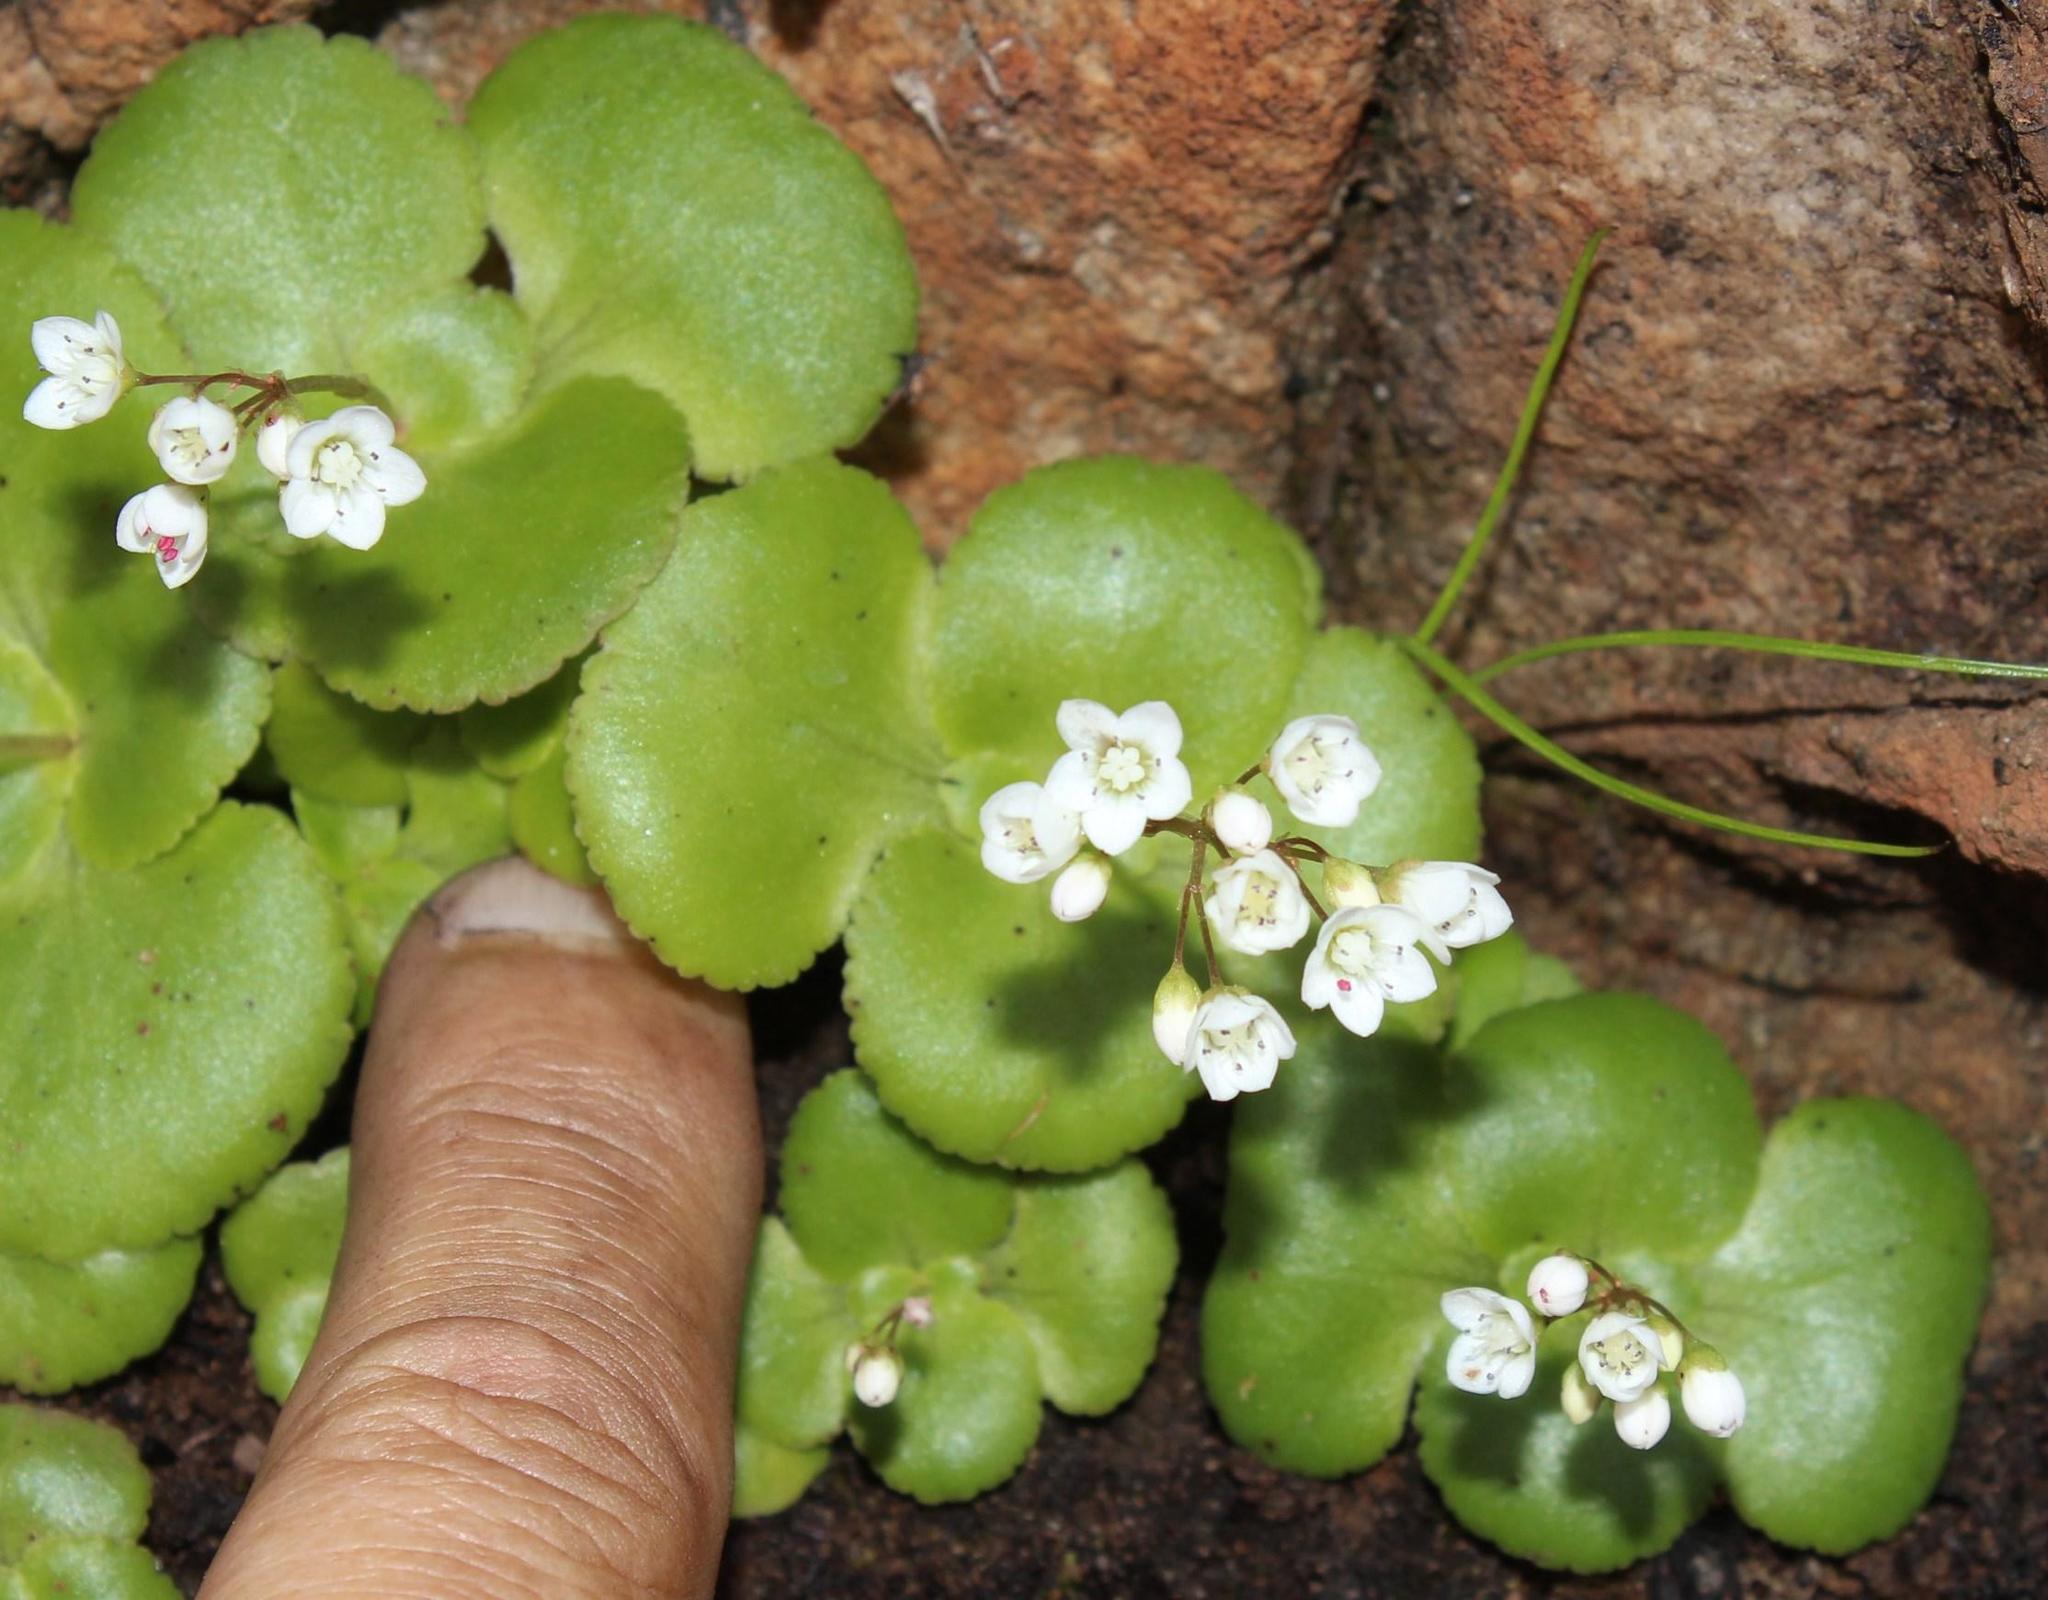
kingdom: Plantae
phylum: Tracheophyta
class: Magnoliopsida
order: Saxifragales
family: Crassulaceae
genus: Crassula
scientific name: Crassula capensis
